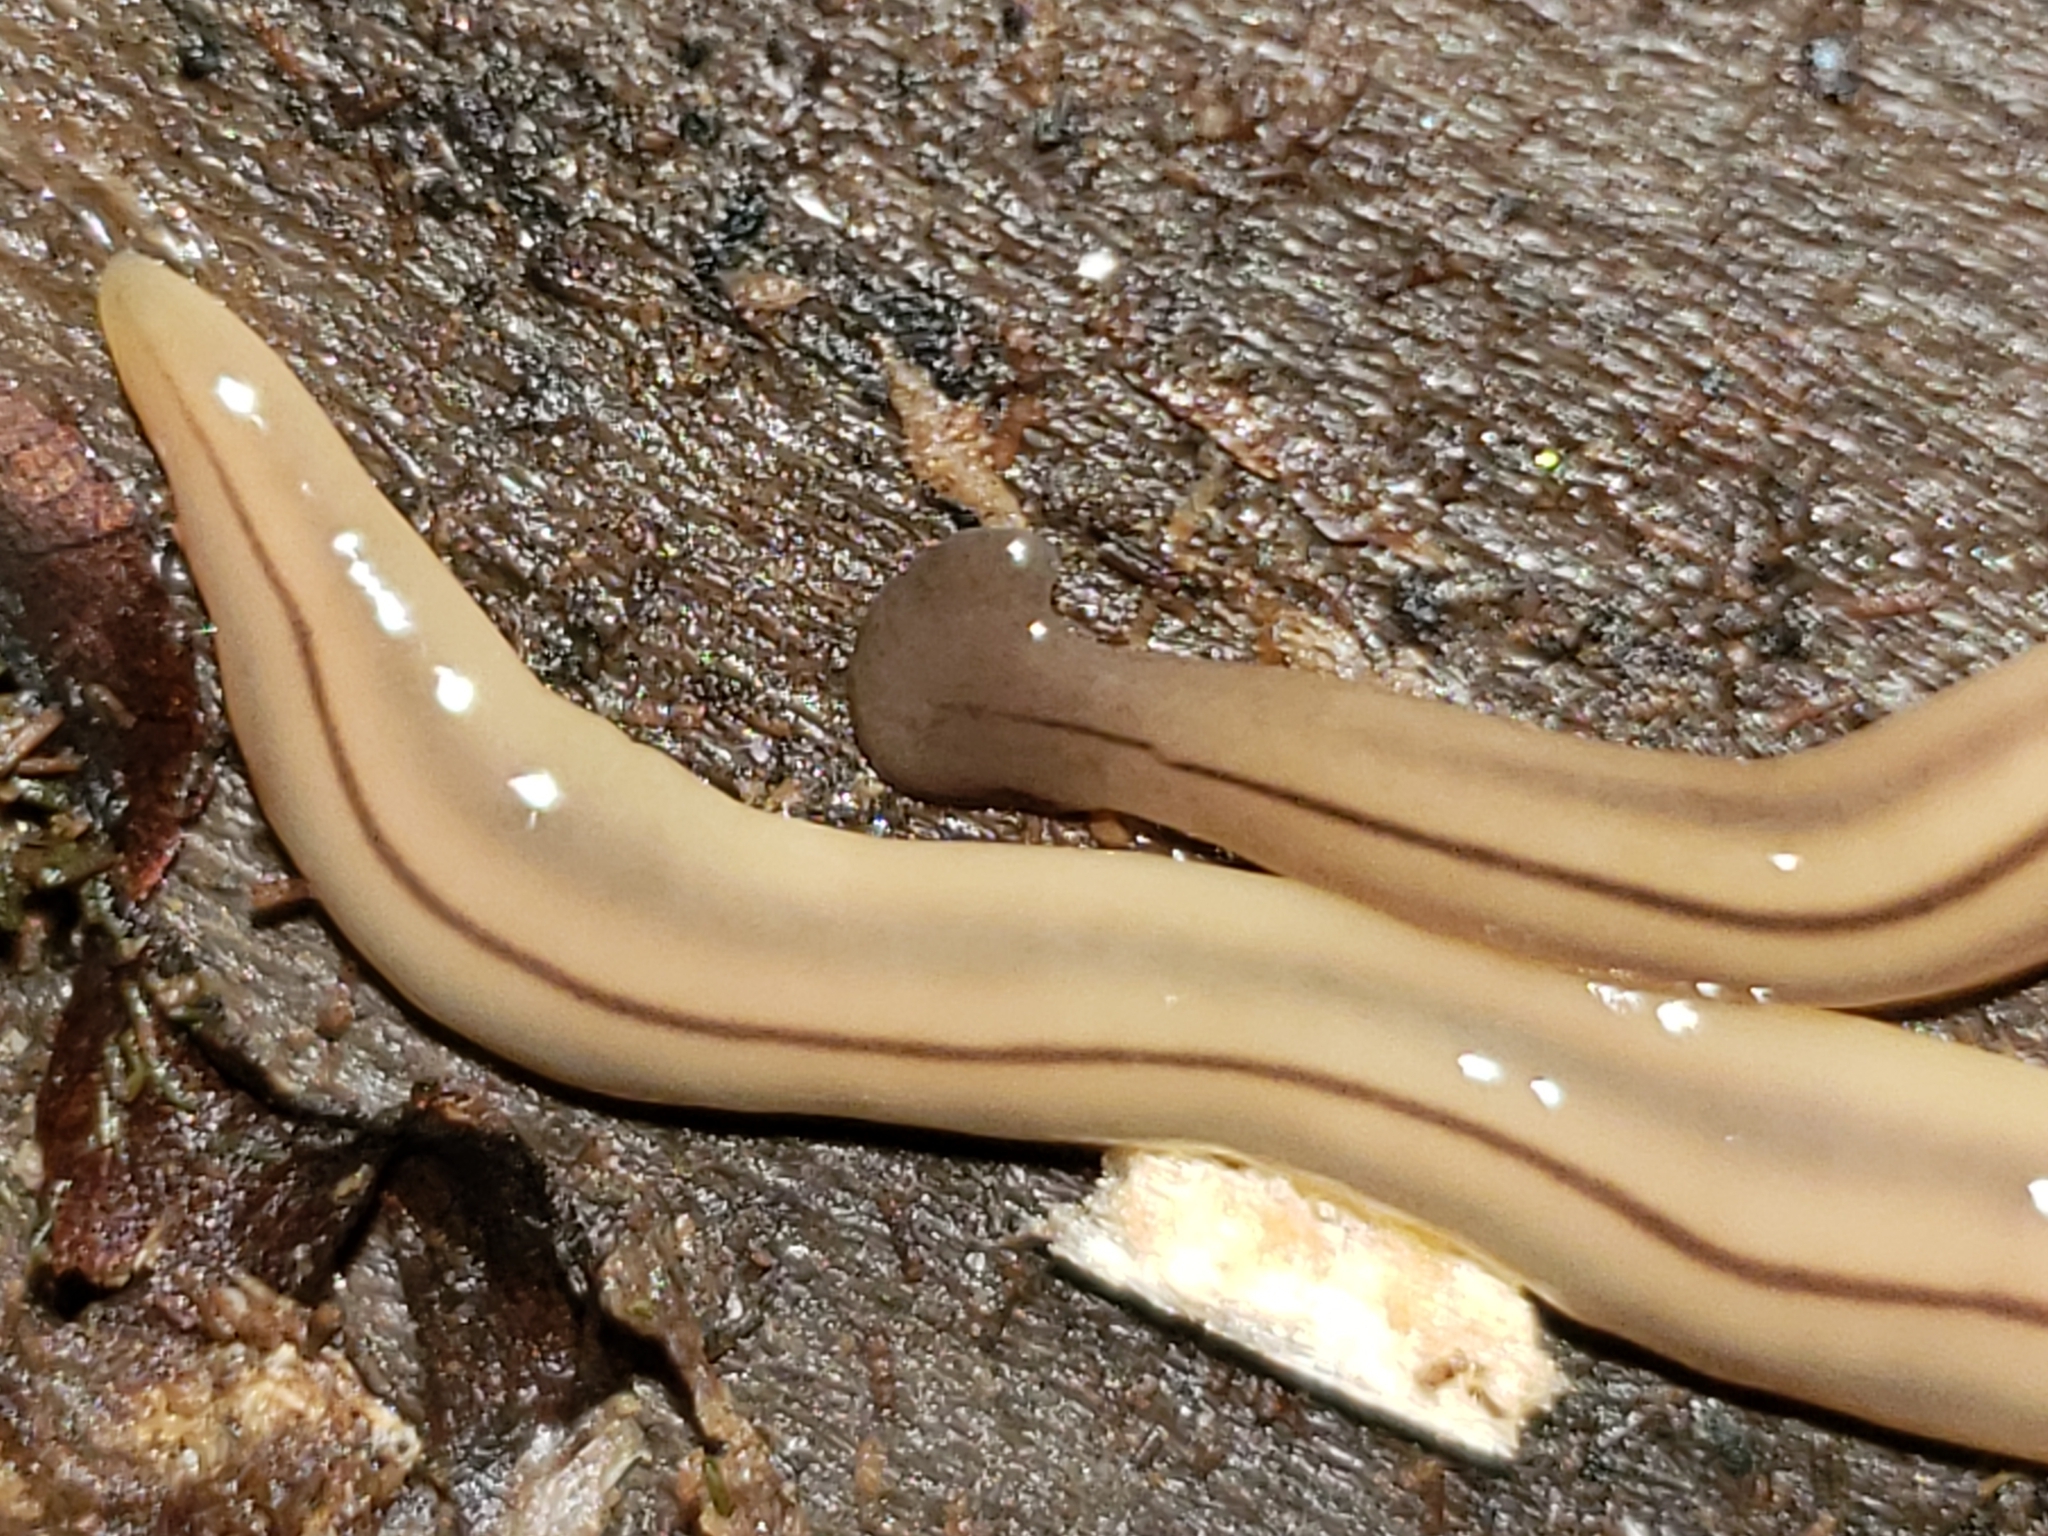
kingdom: Animalia
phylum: Platyhelminthes
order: Tricladida
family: Geoplanidae
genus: Bipalium
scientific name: Bipalium pennsylvanicum
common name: Three-lined land planarian
